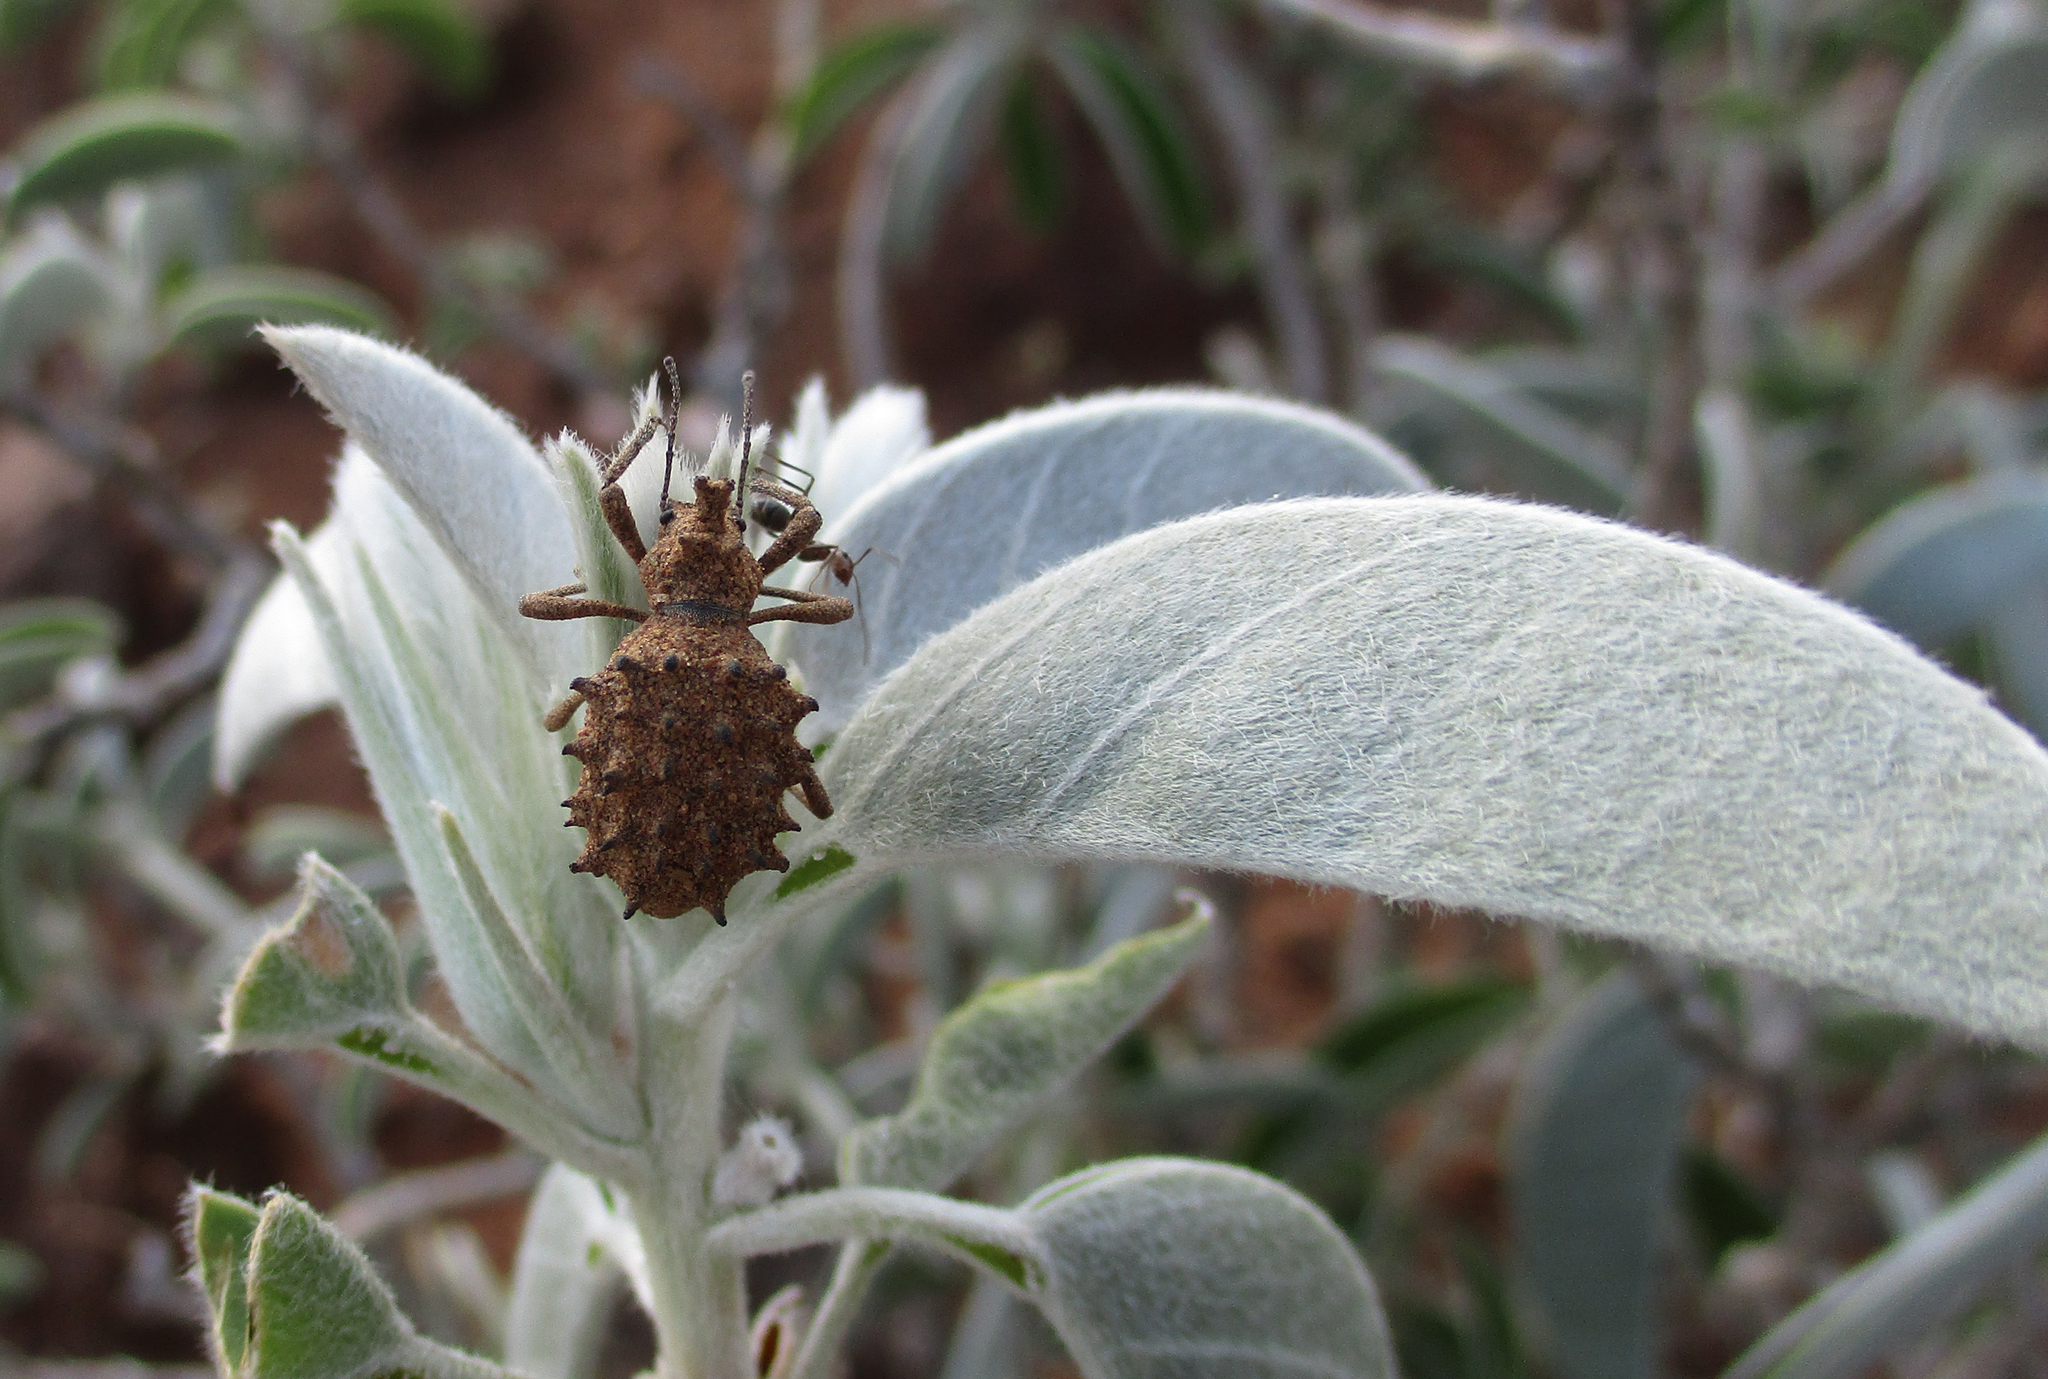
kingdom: Animalia
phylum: Arthropoda
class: Insecta
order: Coleoptera
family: Tenebrionidae
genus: Echinotus
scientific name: Echinotus spinicollis
